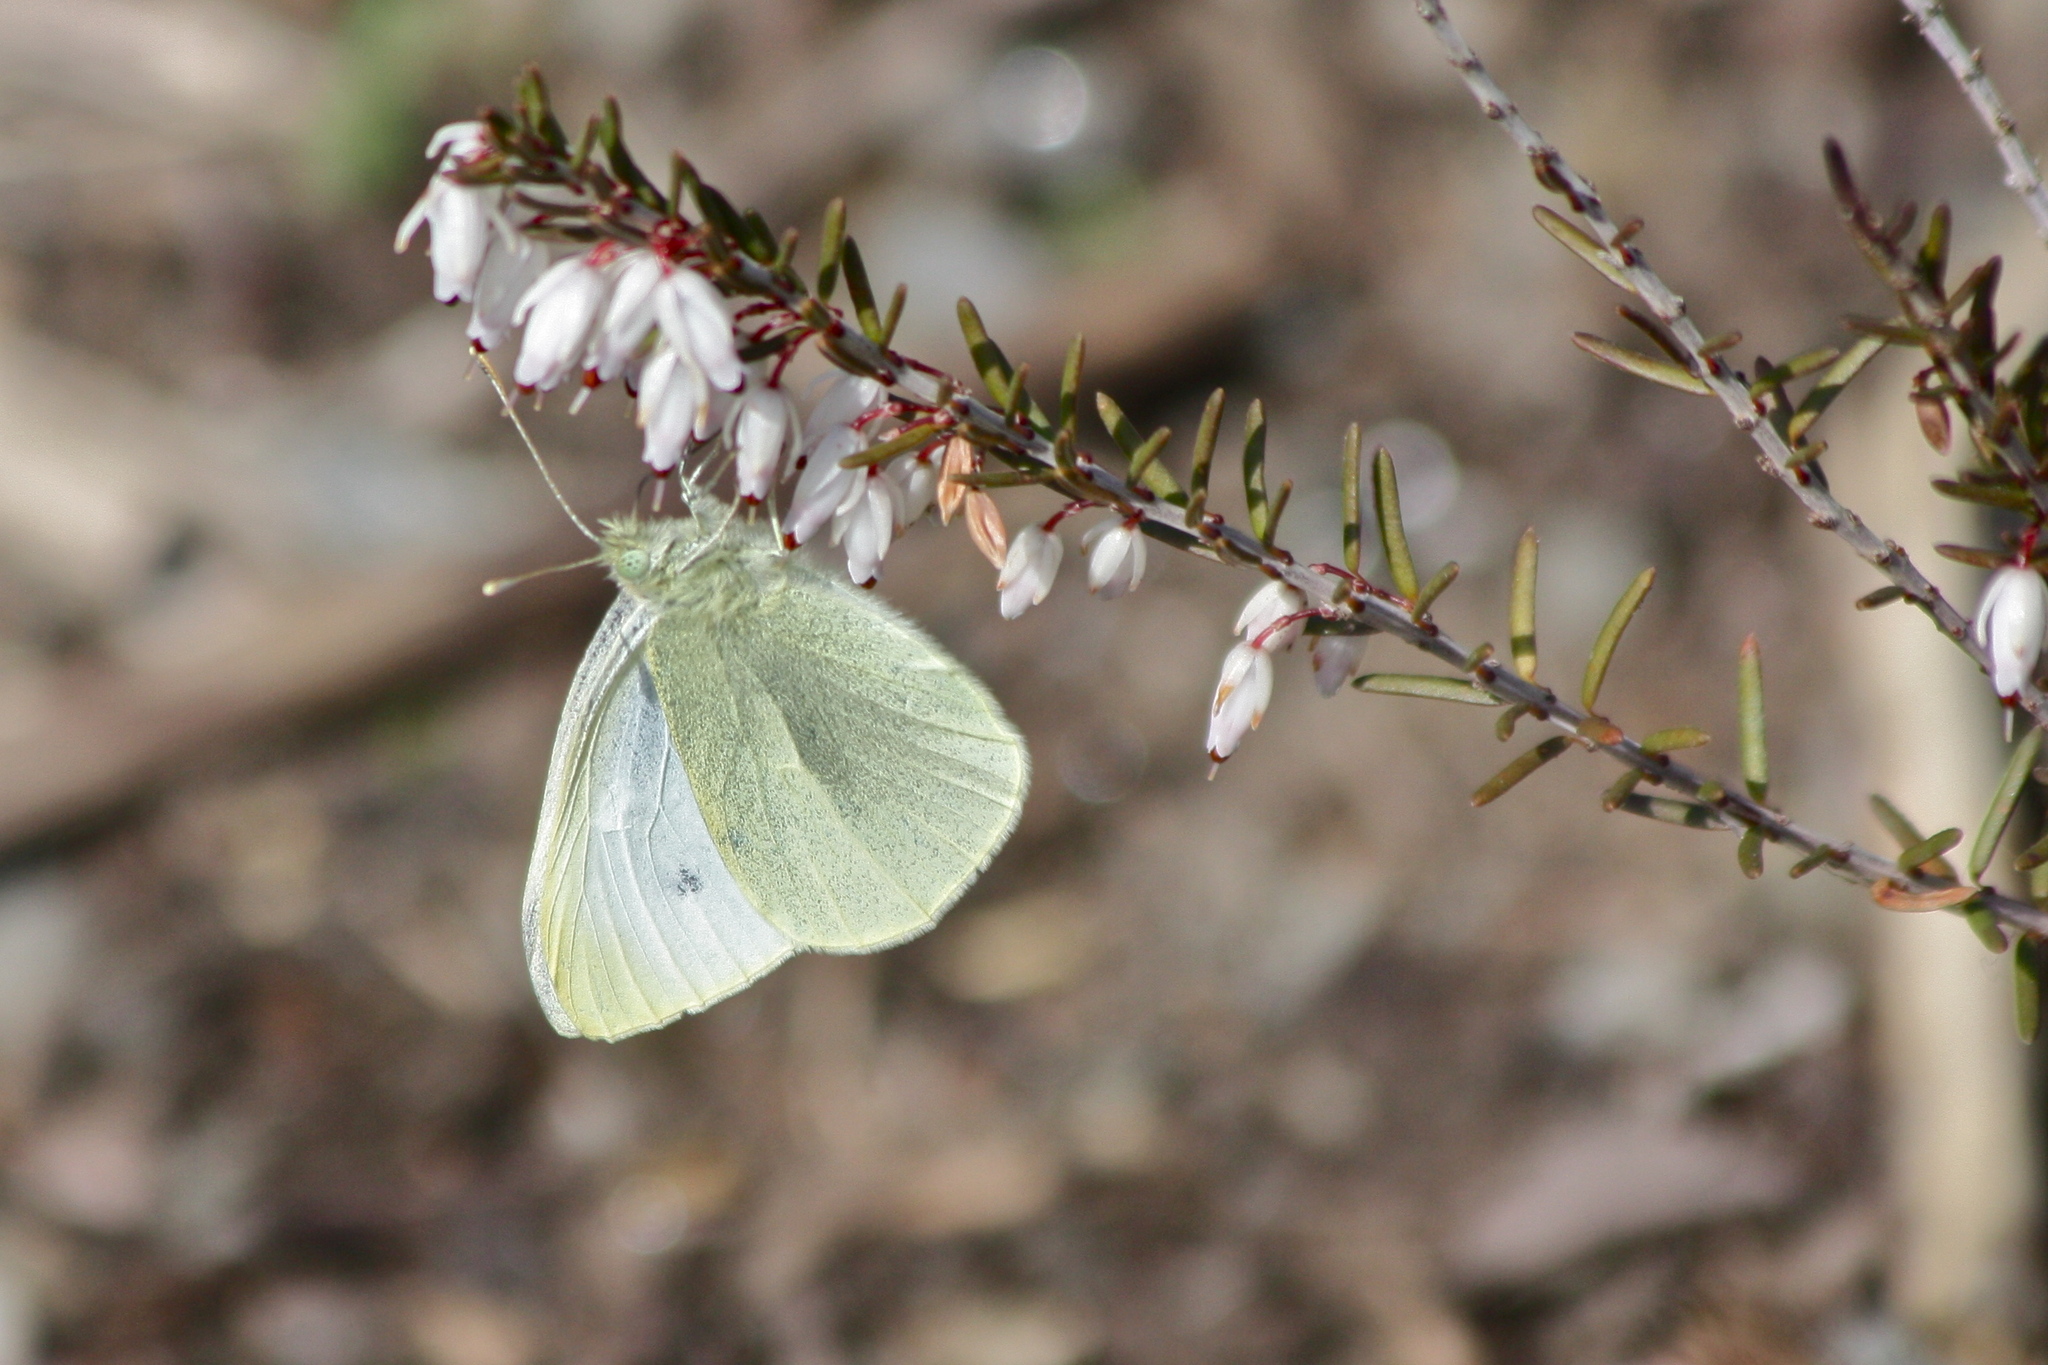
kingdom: Animalia
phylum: Arthropoda
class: Insecta
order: Lepidoptera
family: Pieridae
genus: Pieris
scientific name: Pieris rapae
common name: Small white
